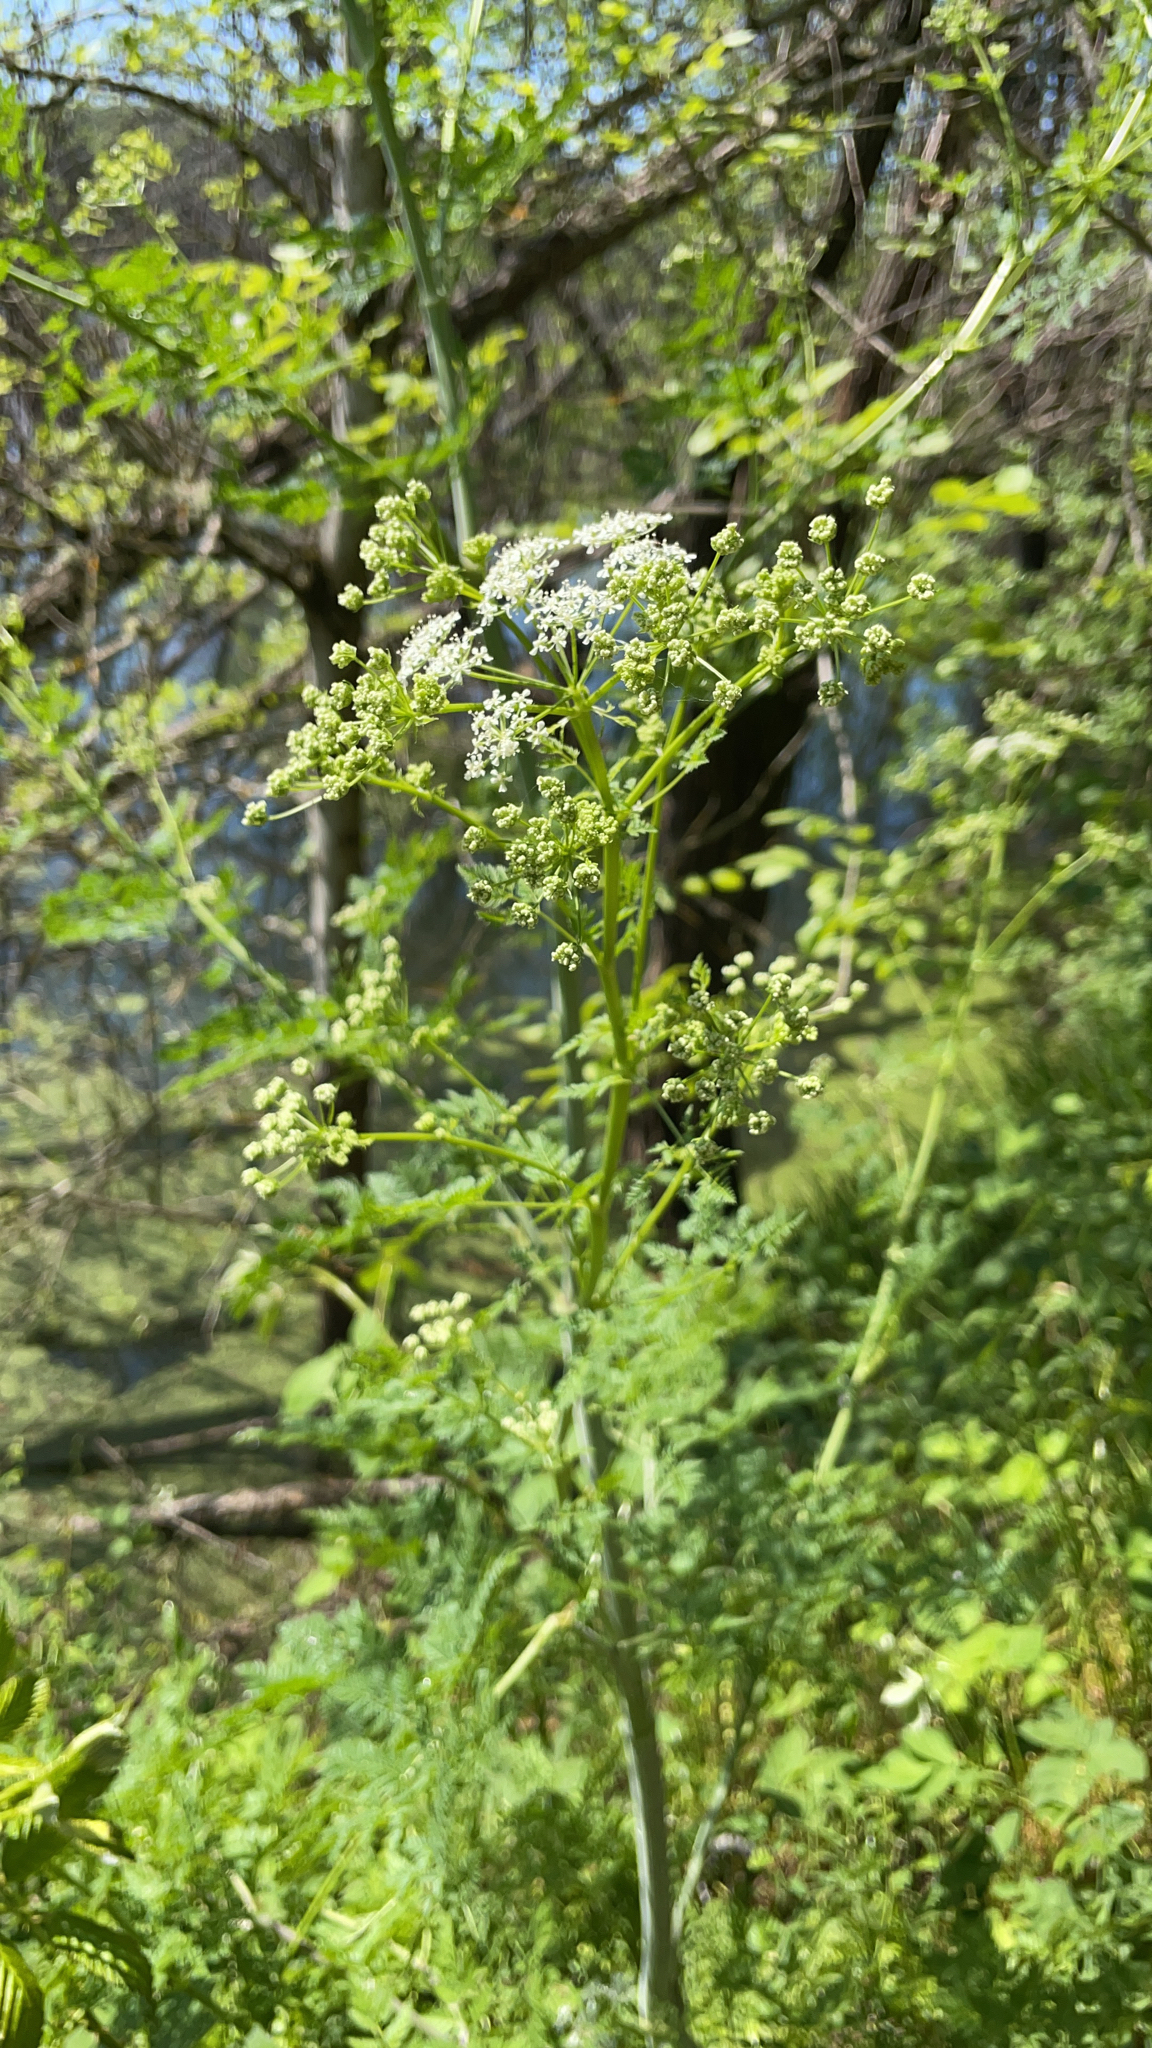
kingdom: Plantae
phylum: Tracheophyta
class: Magnoliopsida
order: Apiales
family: Apiaceae
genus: Conium
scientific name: Conium maculatum
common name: Hemlock
